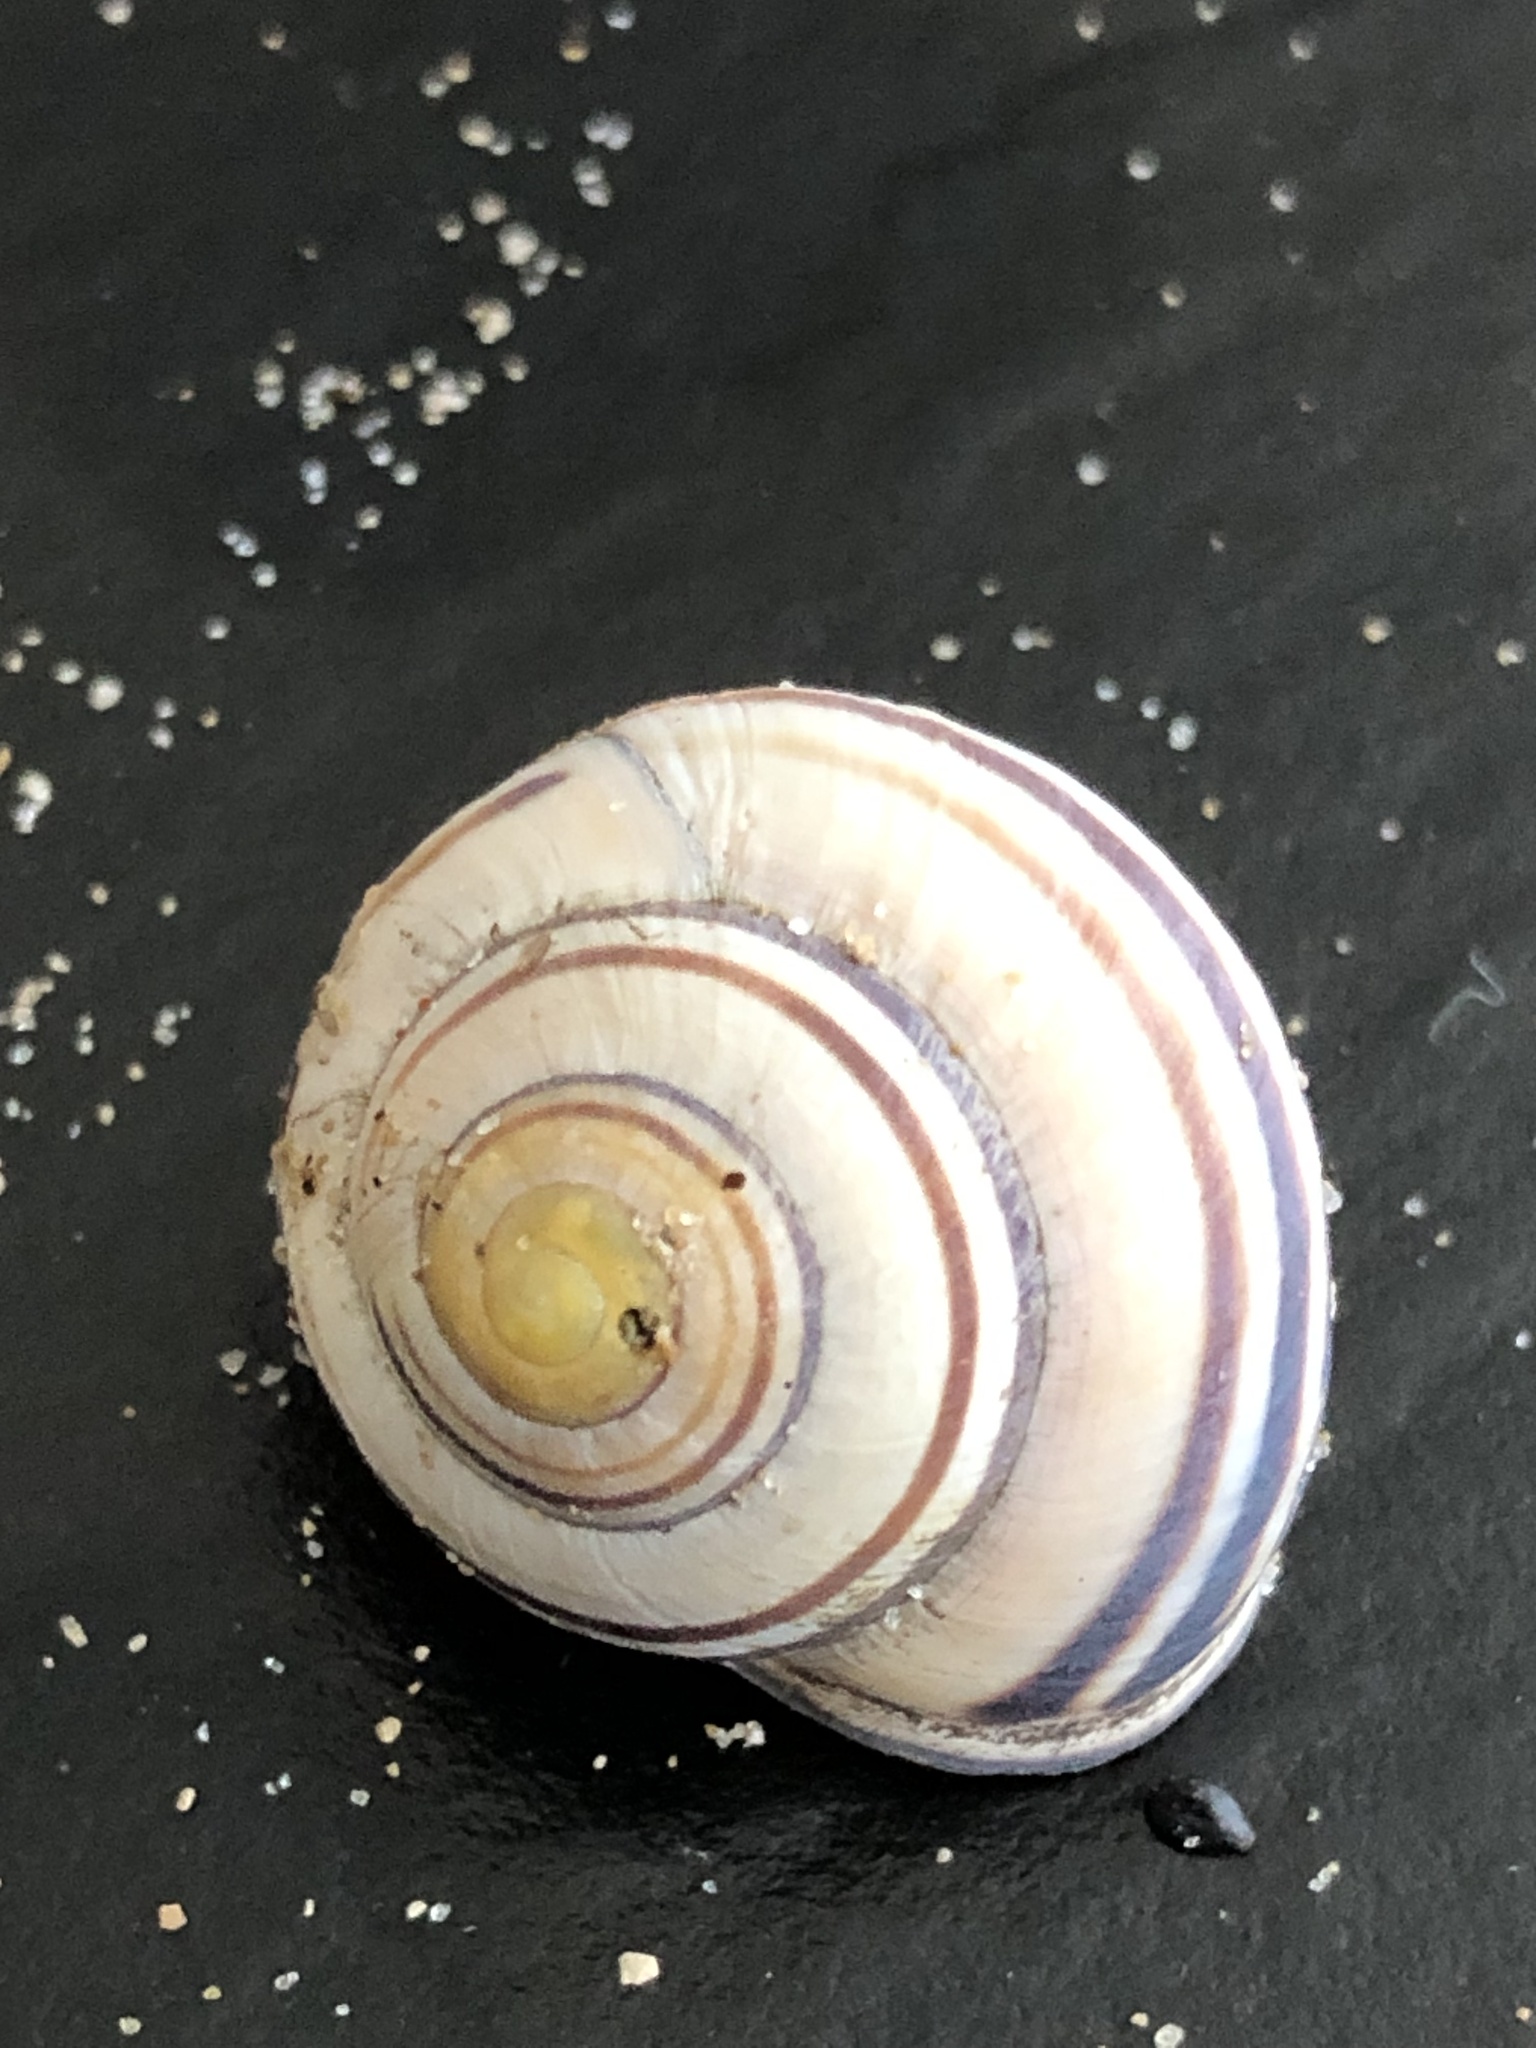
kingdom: Animalia
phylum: Mollusca
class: Gastropoda
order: Stylommatophora
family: Helicidae
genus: Cepaea
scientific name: Cepaea nemoralis
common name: Grovesnail
